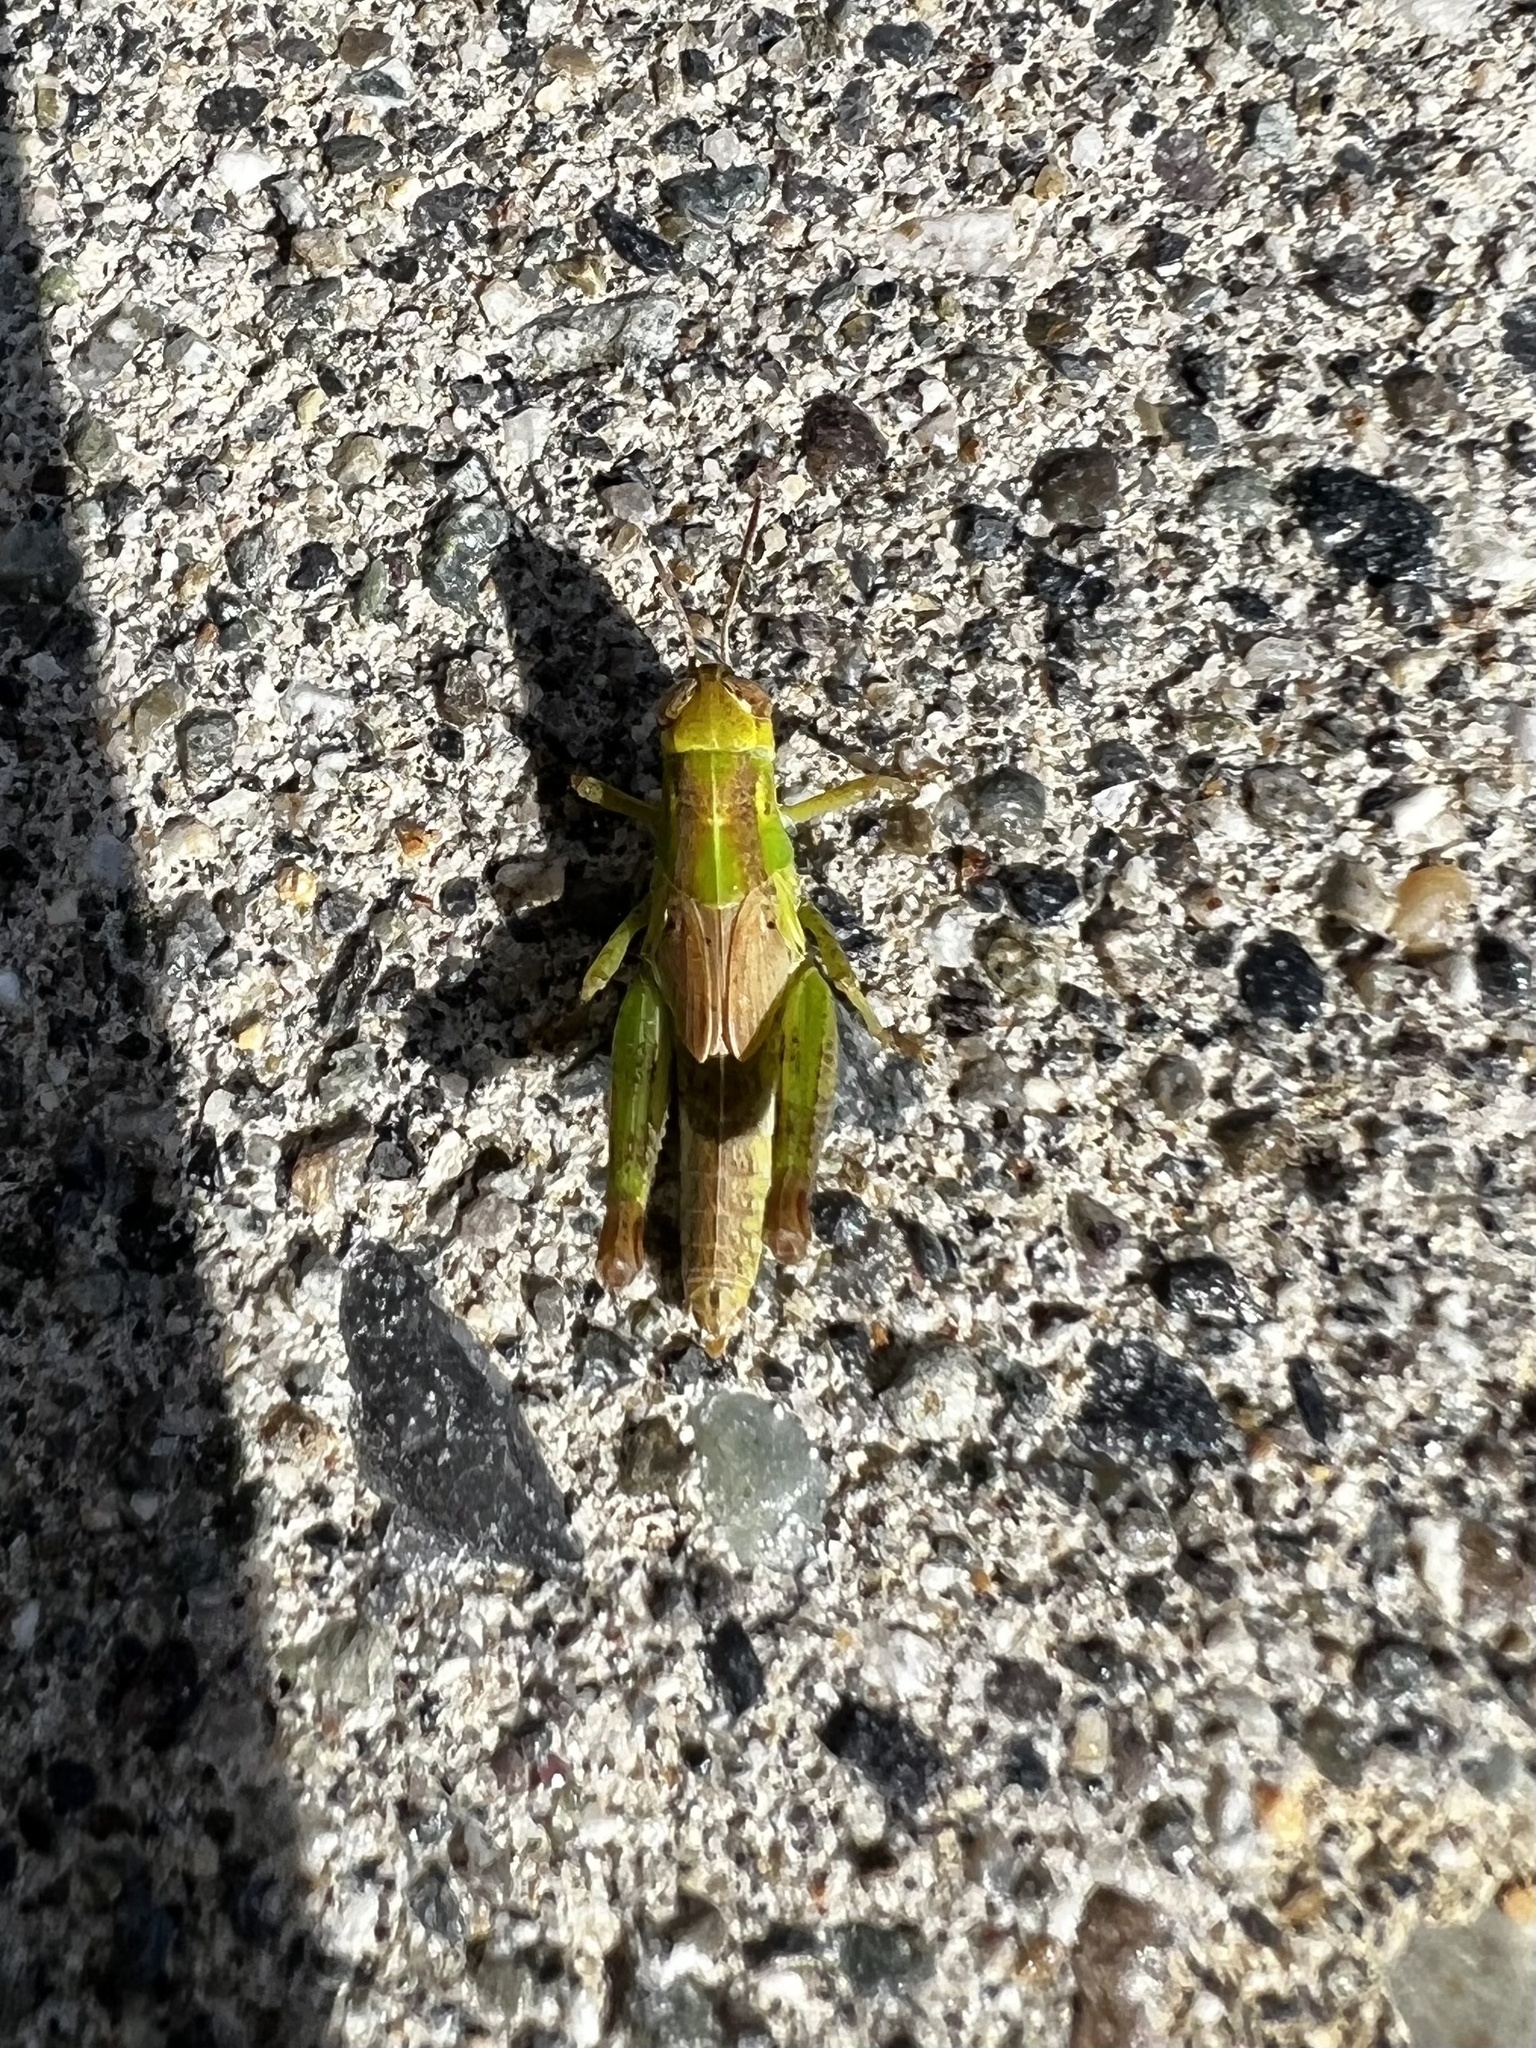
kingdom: Animalia
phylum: Arthropoda
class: Insecta
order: Orthoptera
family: Acrididae
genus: Melanoplus
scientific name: Melanoplus bivittatus
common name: Two-striped grasshopper
